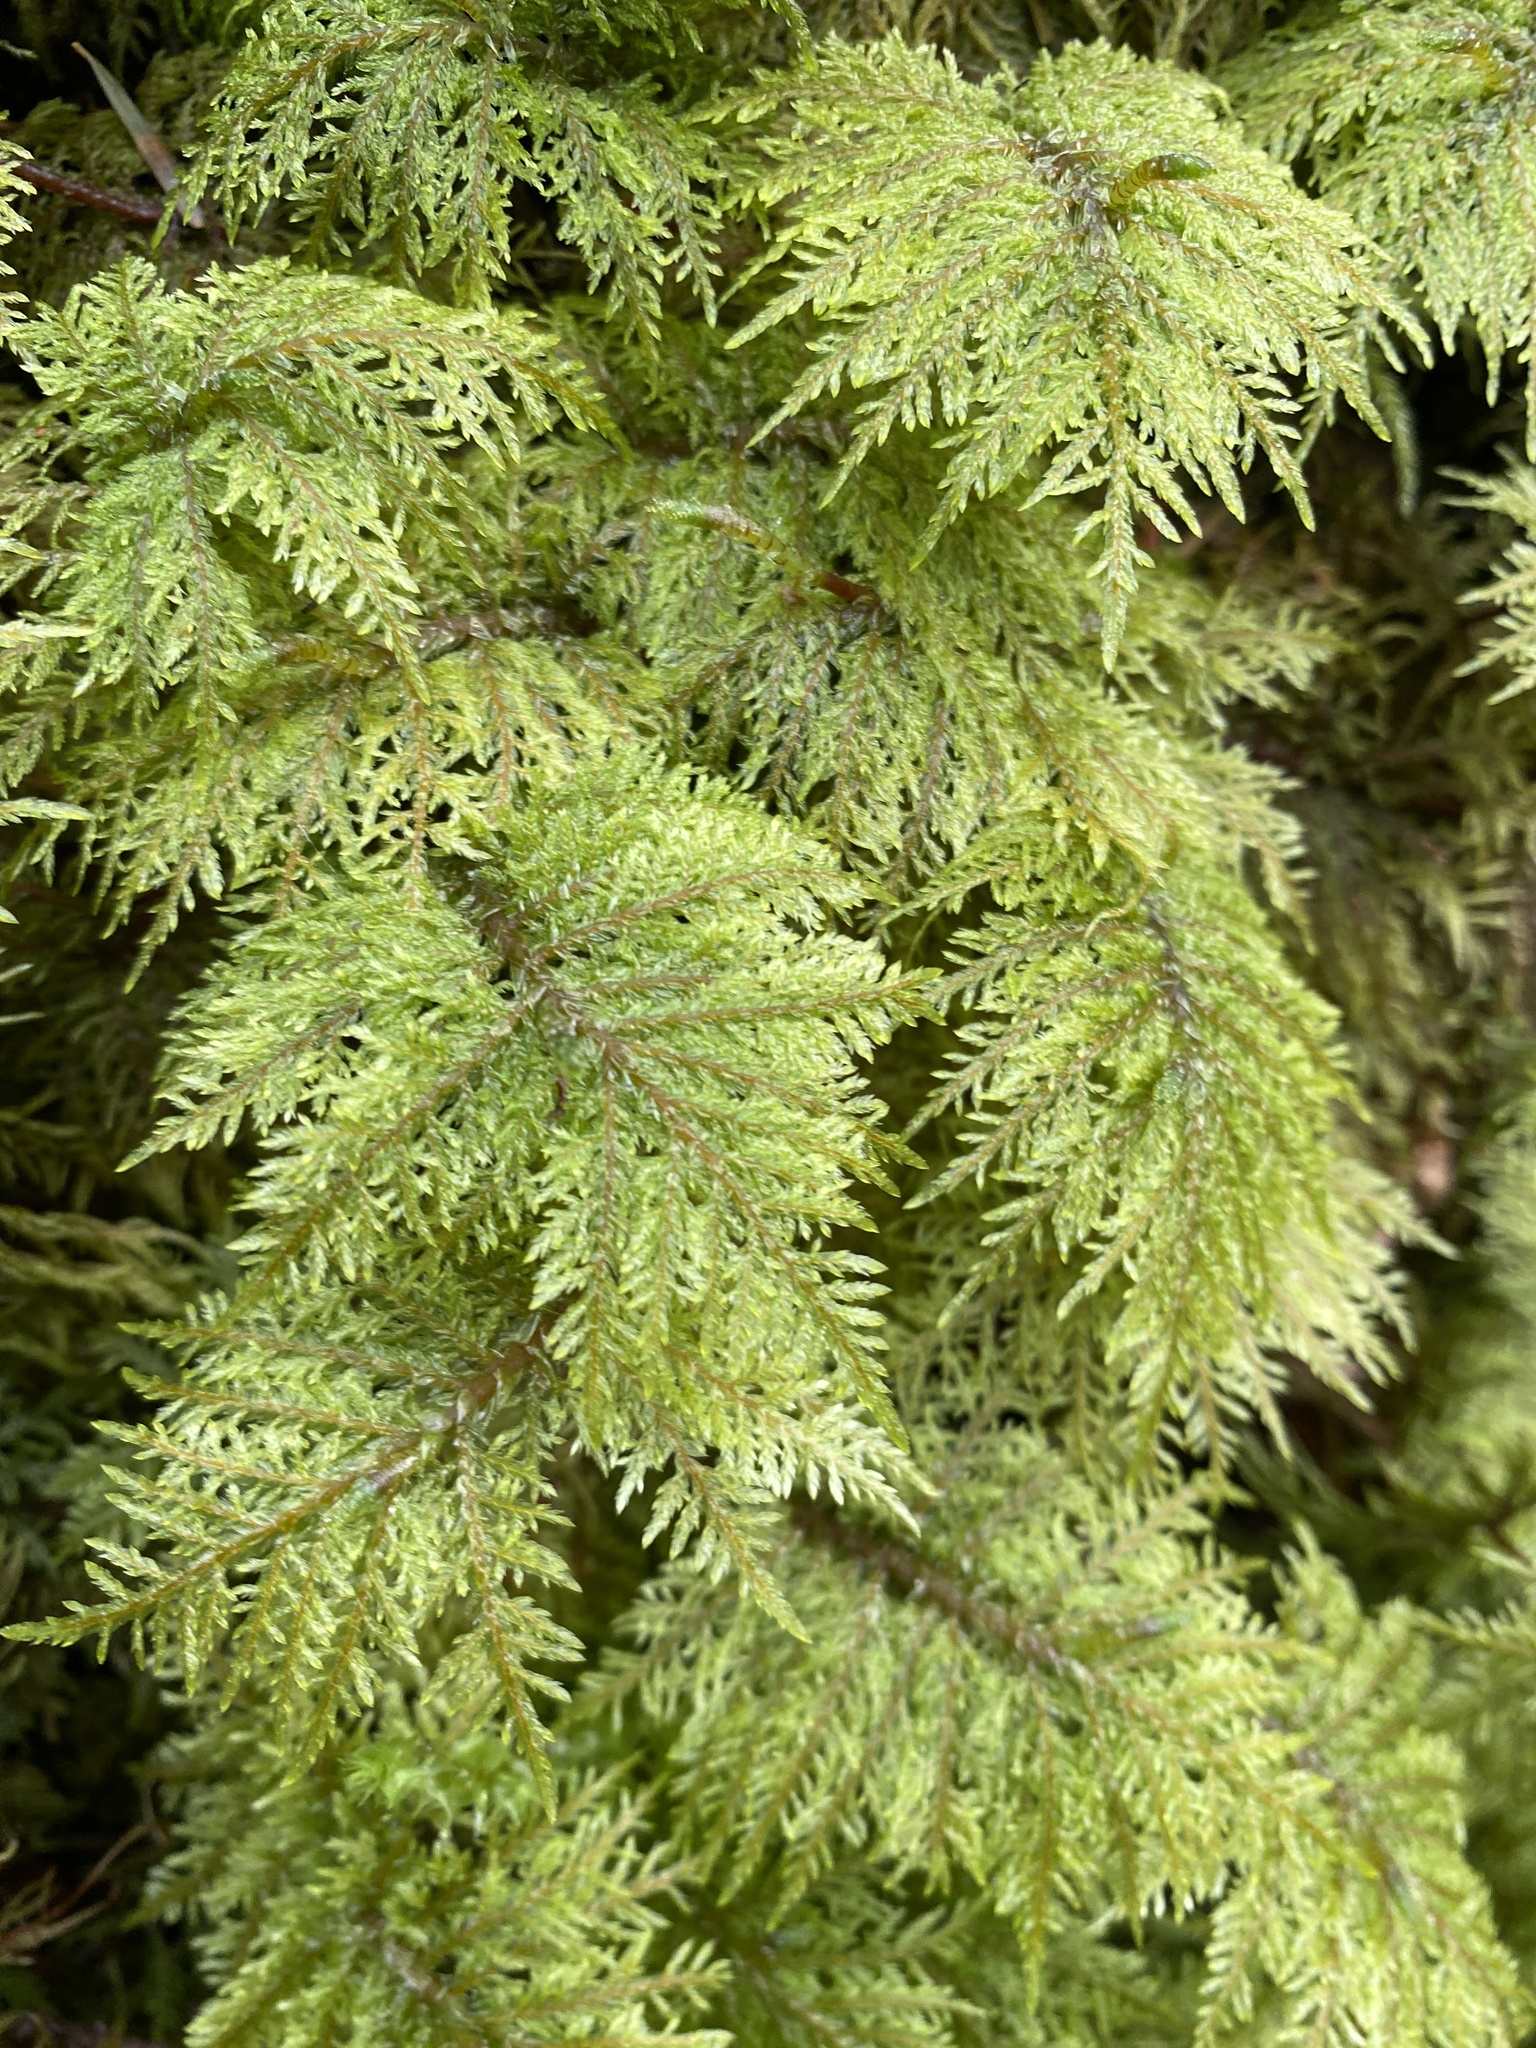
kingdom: Plantae
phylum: Bryophyta
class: Bryopsida
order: Hypnales
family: Hylocomiaceae
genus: Hylocomium
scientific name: Hylocomium splendens
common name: Stairstep moss
